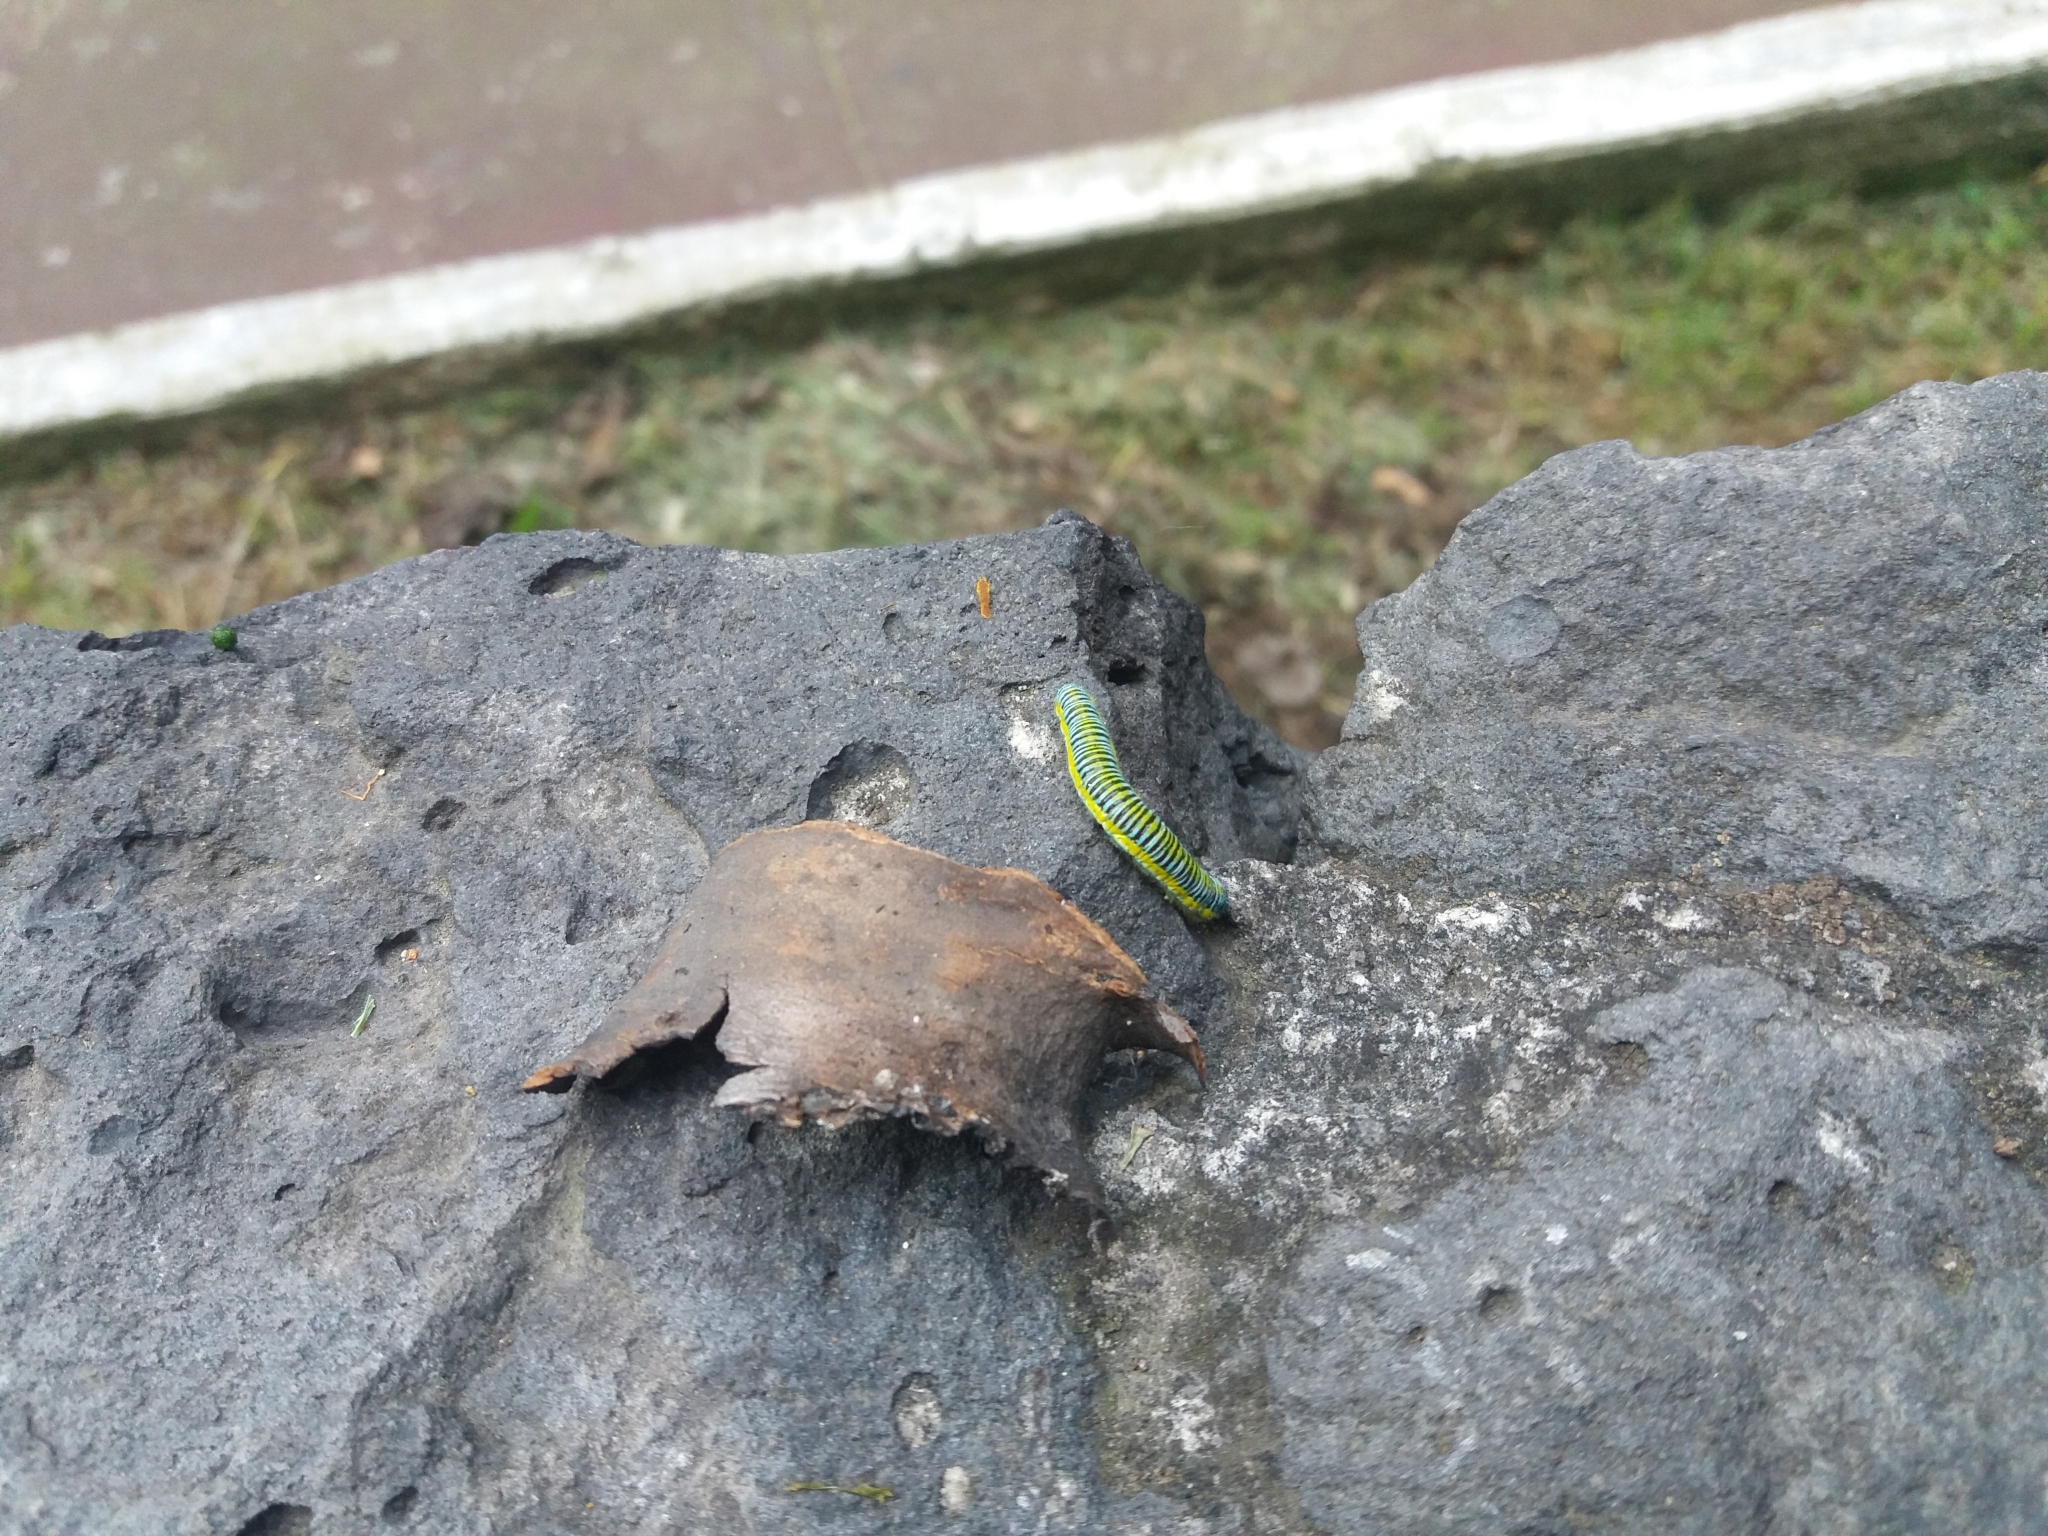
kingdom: Animalia
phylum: Arthropoda
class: Insecta
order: Lepidoptera
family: Pieridae
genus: Leptophobia
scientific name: Leptophobia aripa
